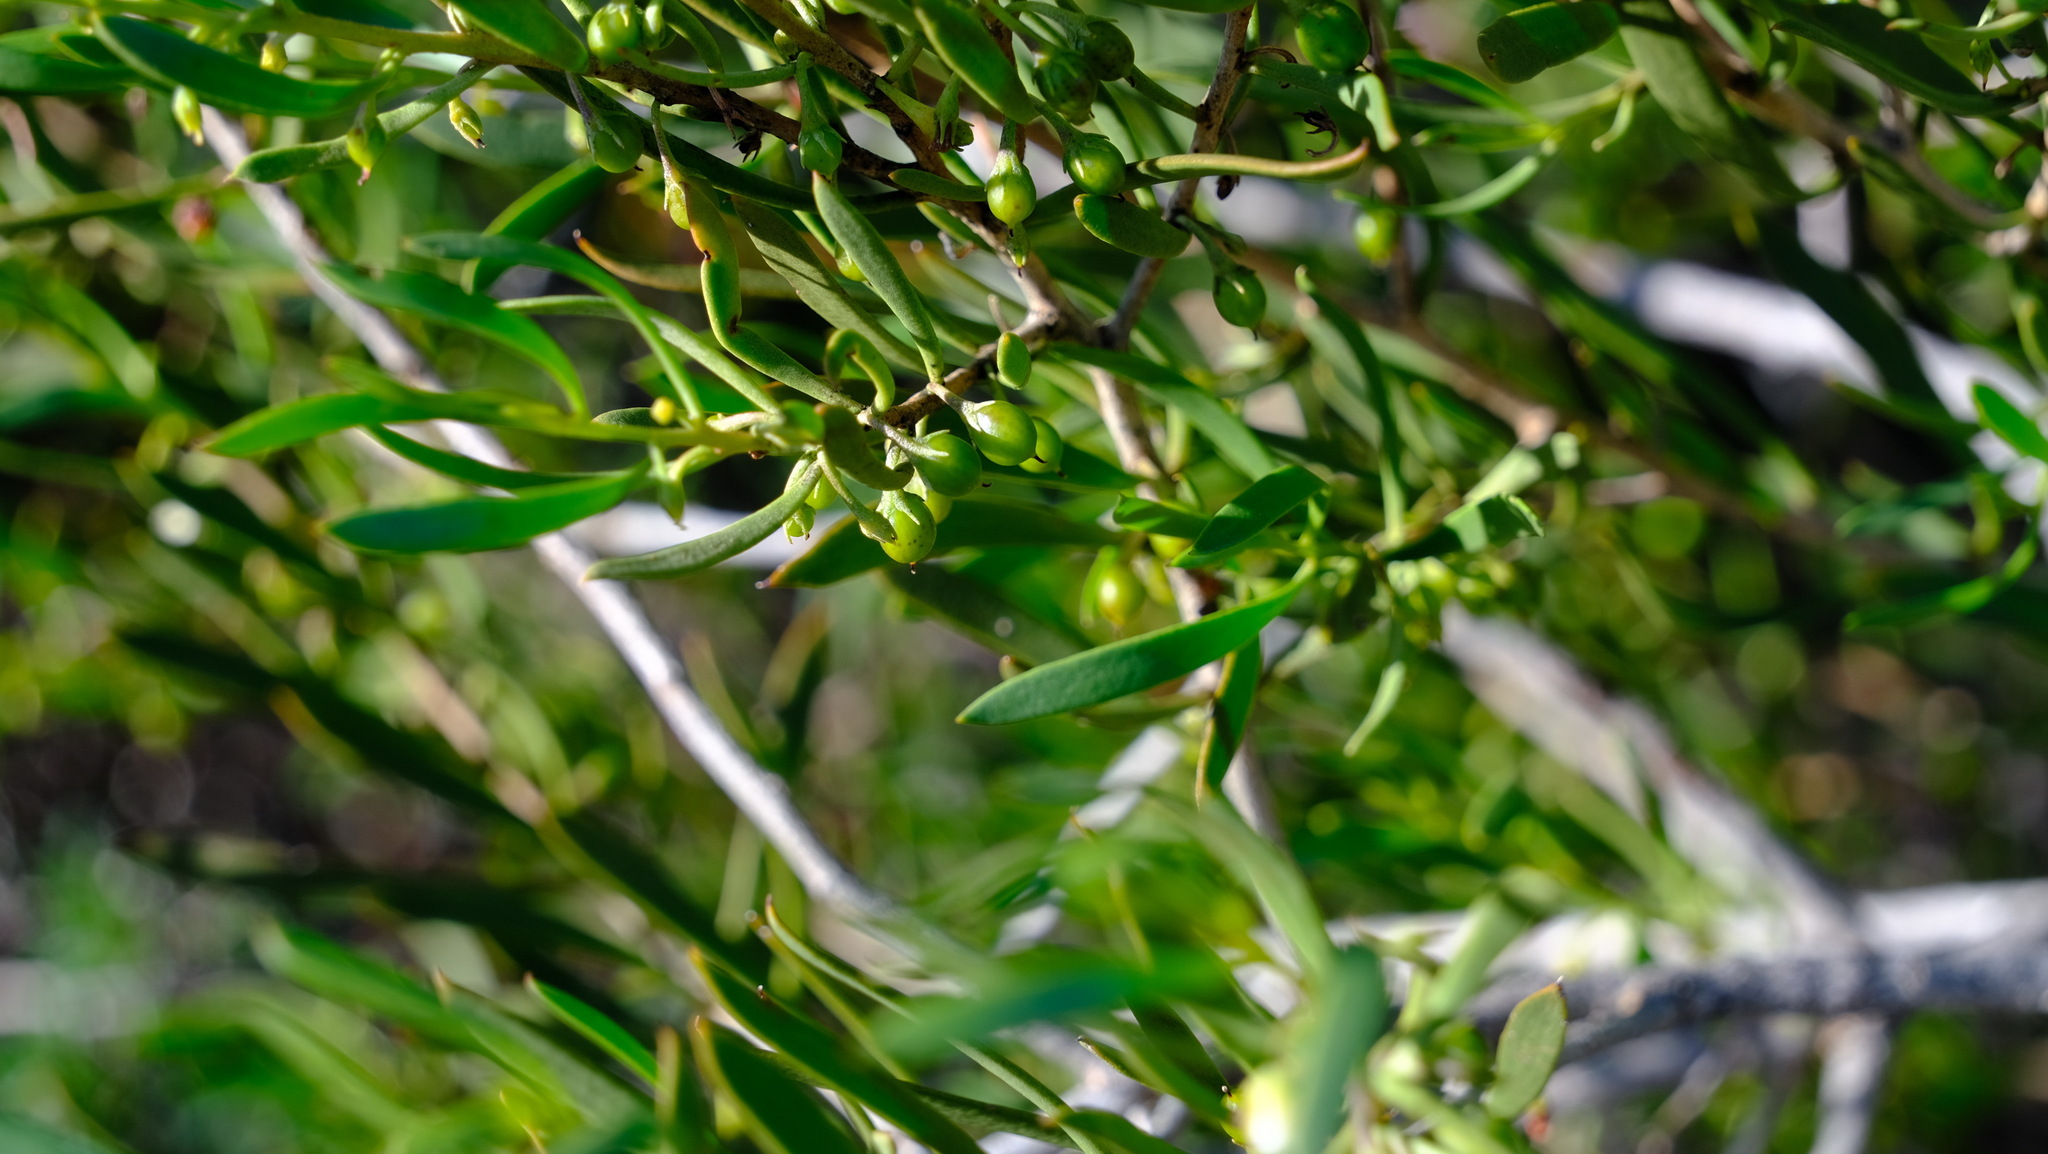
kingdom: Plantae
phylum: Tracheophyta
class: Magnoliopsida
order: Lamiales
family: Scrophulariaceae
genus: Eremophila
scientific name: Eremophila deserti
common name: Ellangowan-poisonbush
